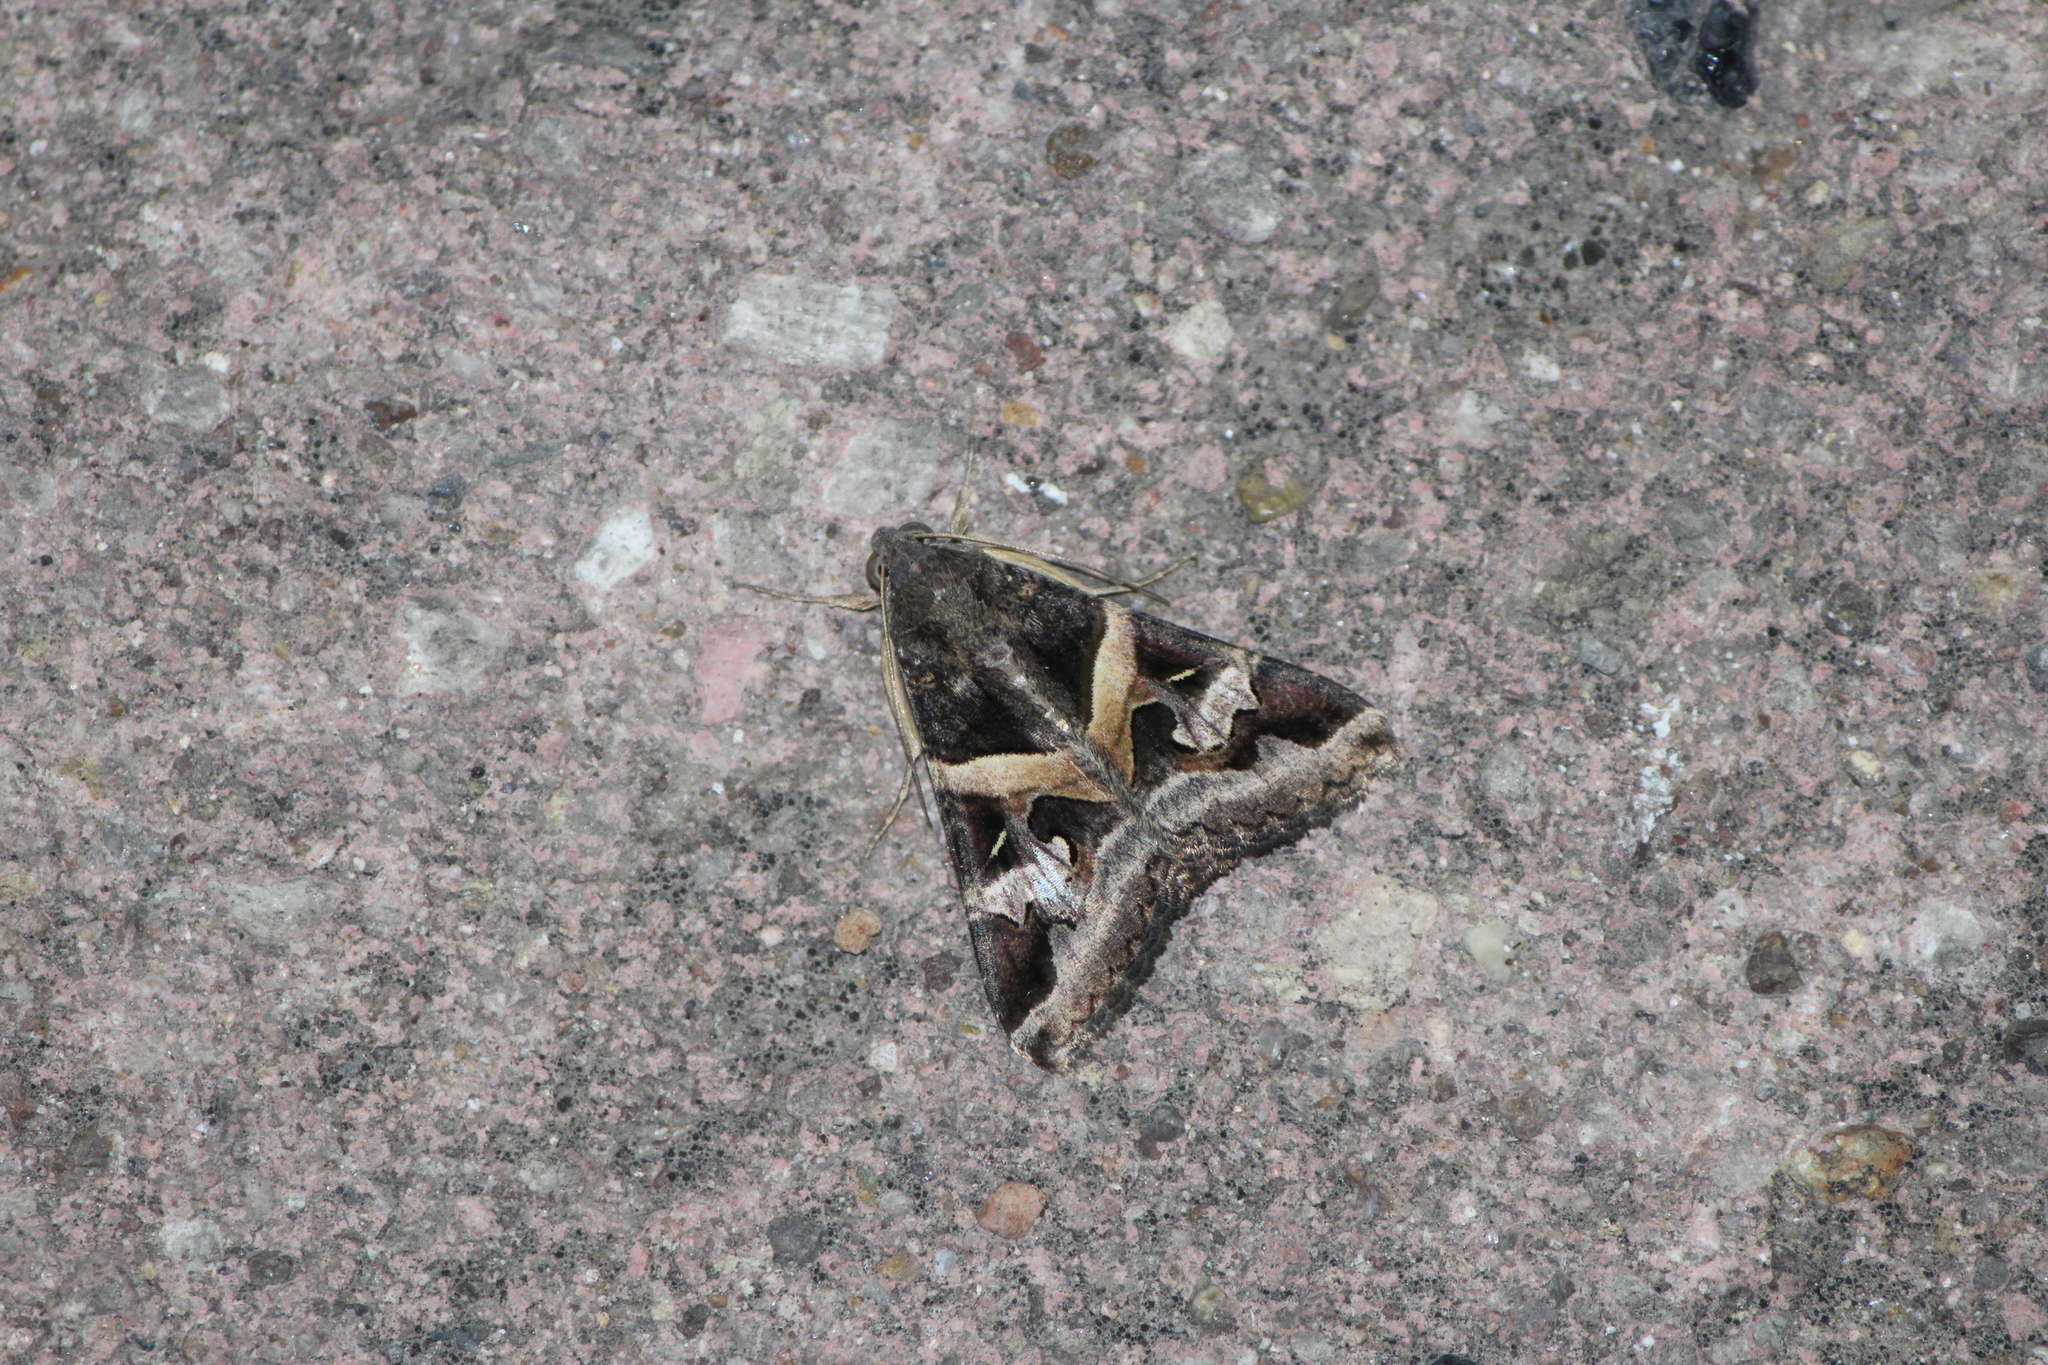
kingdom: Animalia
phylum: Arthropoda
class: Insecta
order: Lepidoptera
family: Erebidae
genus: Melipotis
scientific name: Melipotis perpendicularis
